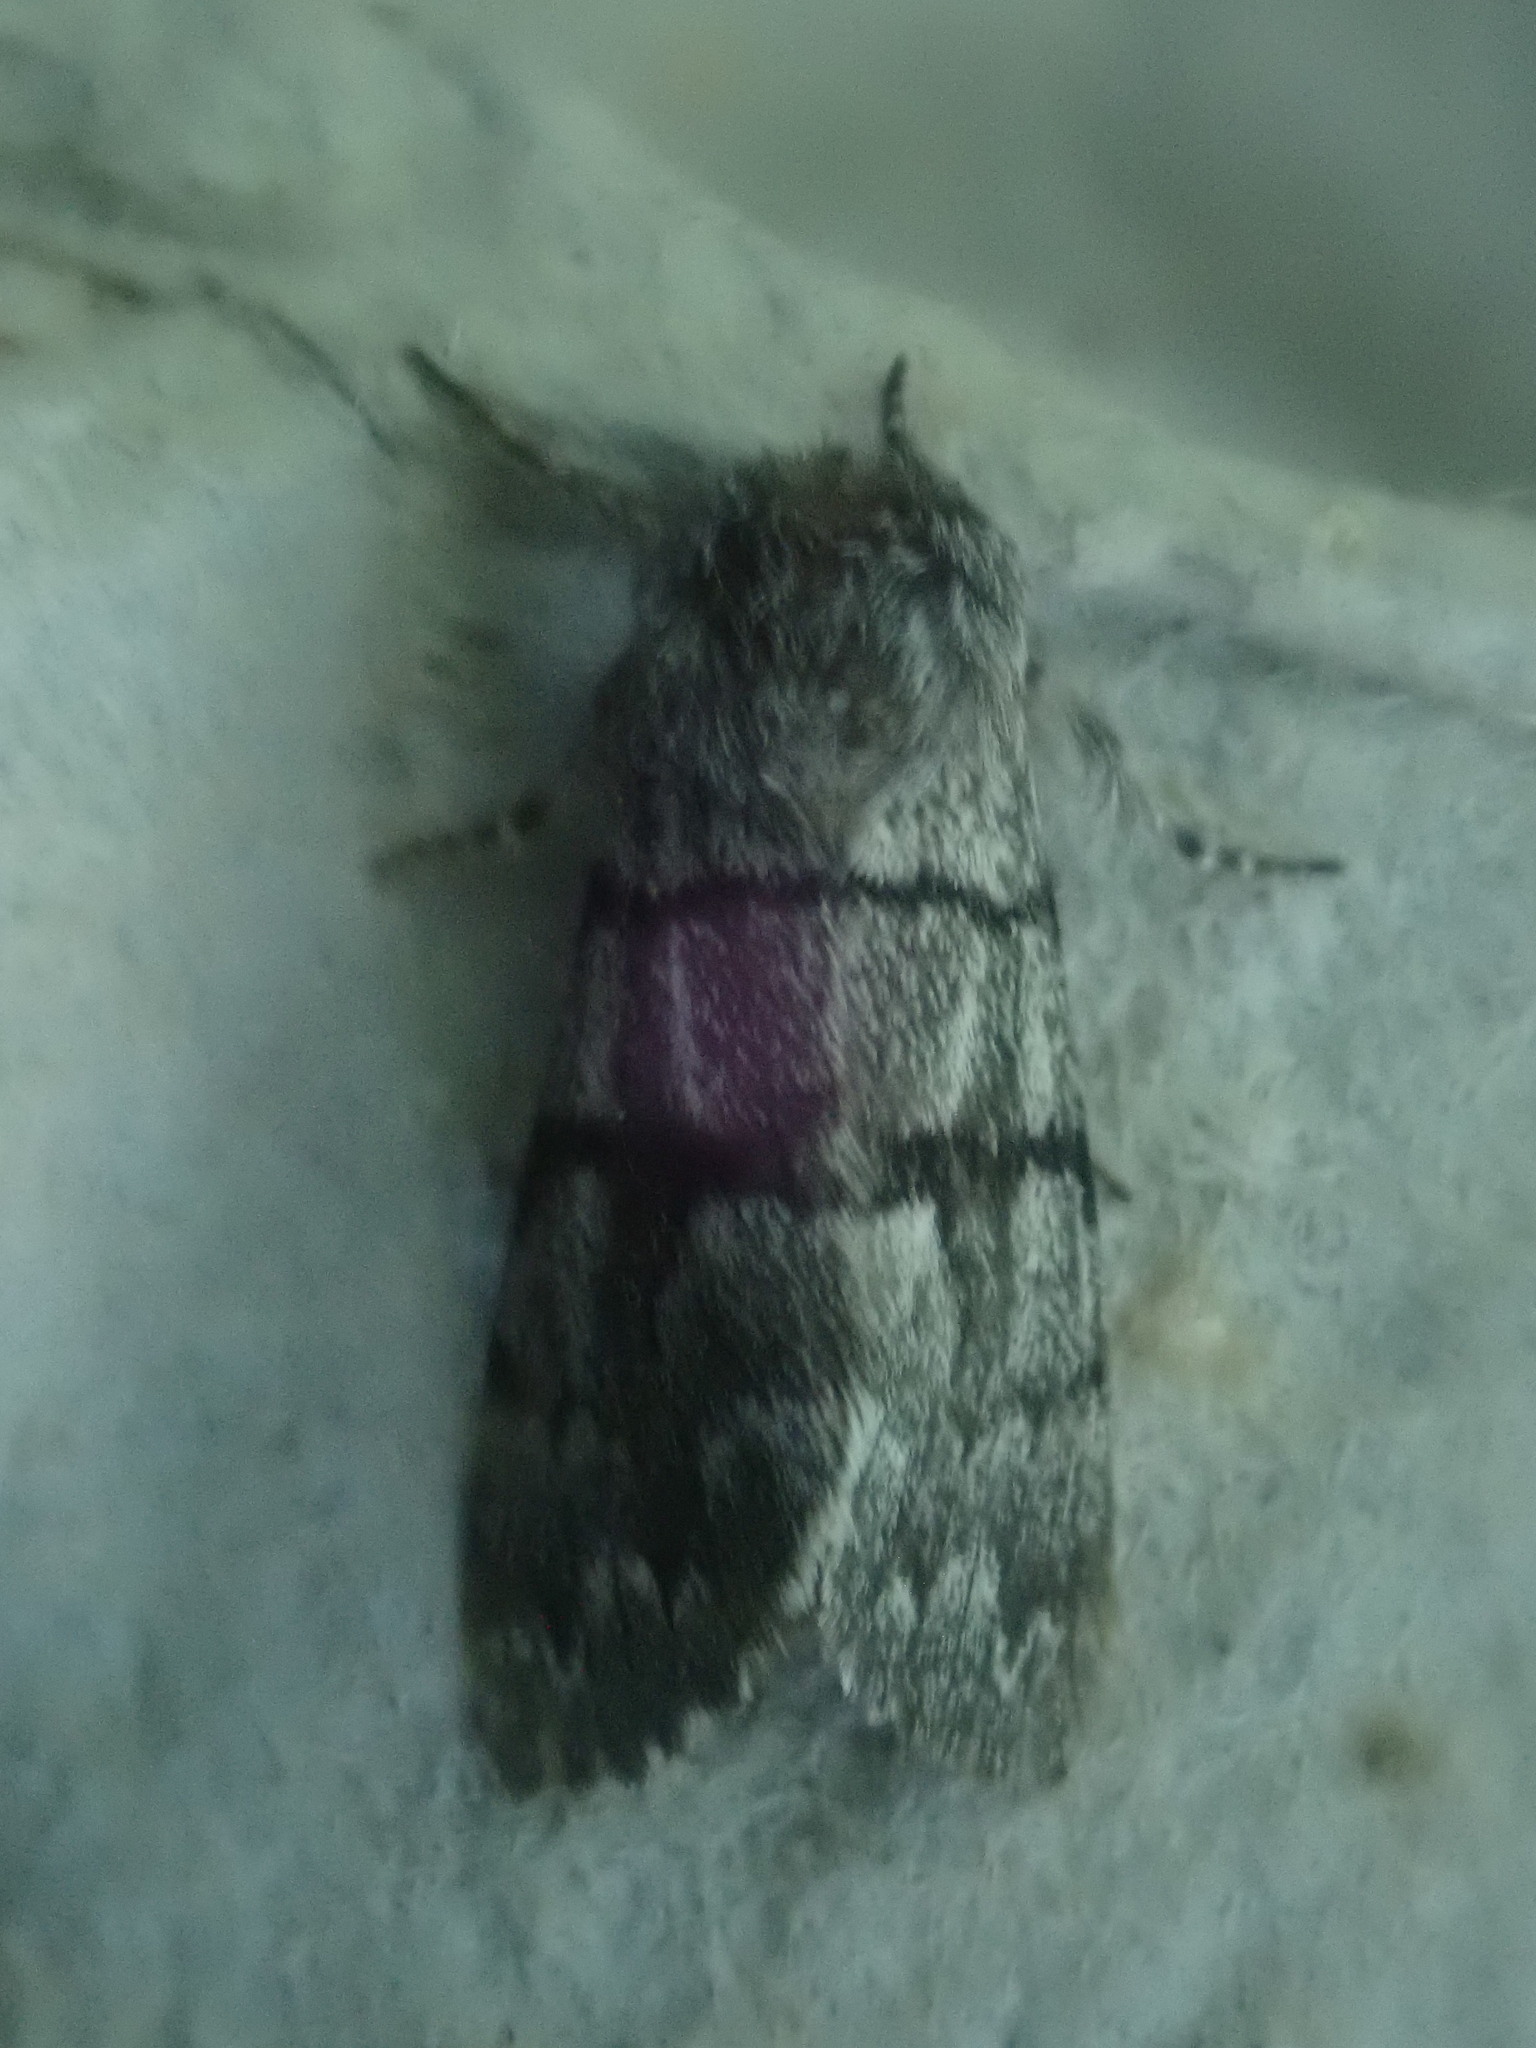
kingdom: Animalia
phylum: Arthropoda
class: Insecta
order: Lepidoptera
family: Noctuidae
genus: Panthea
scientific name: Panthea furcilla
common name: Eastern panthea moth
